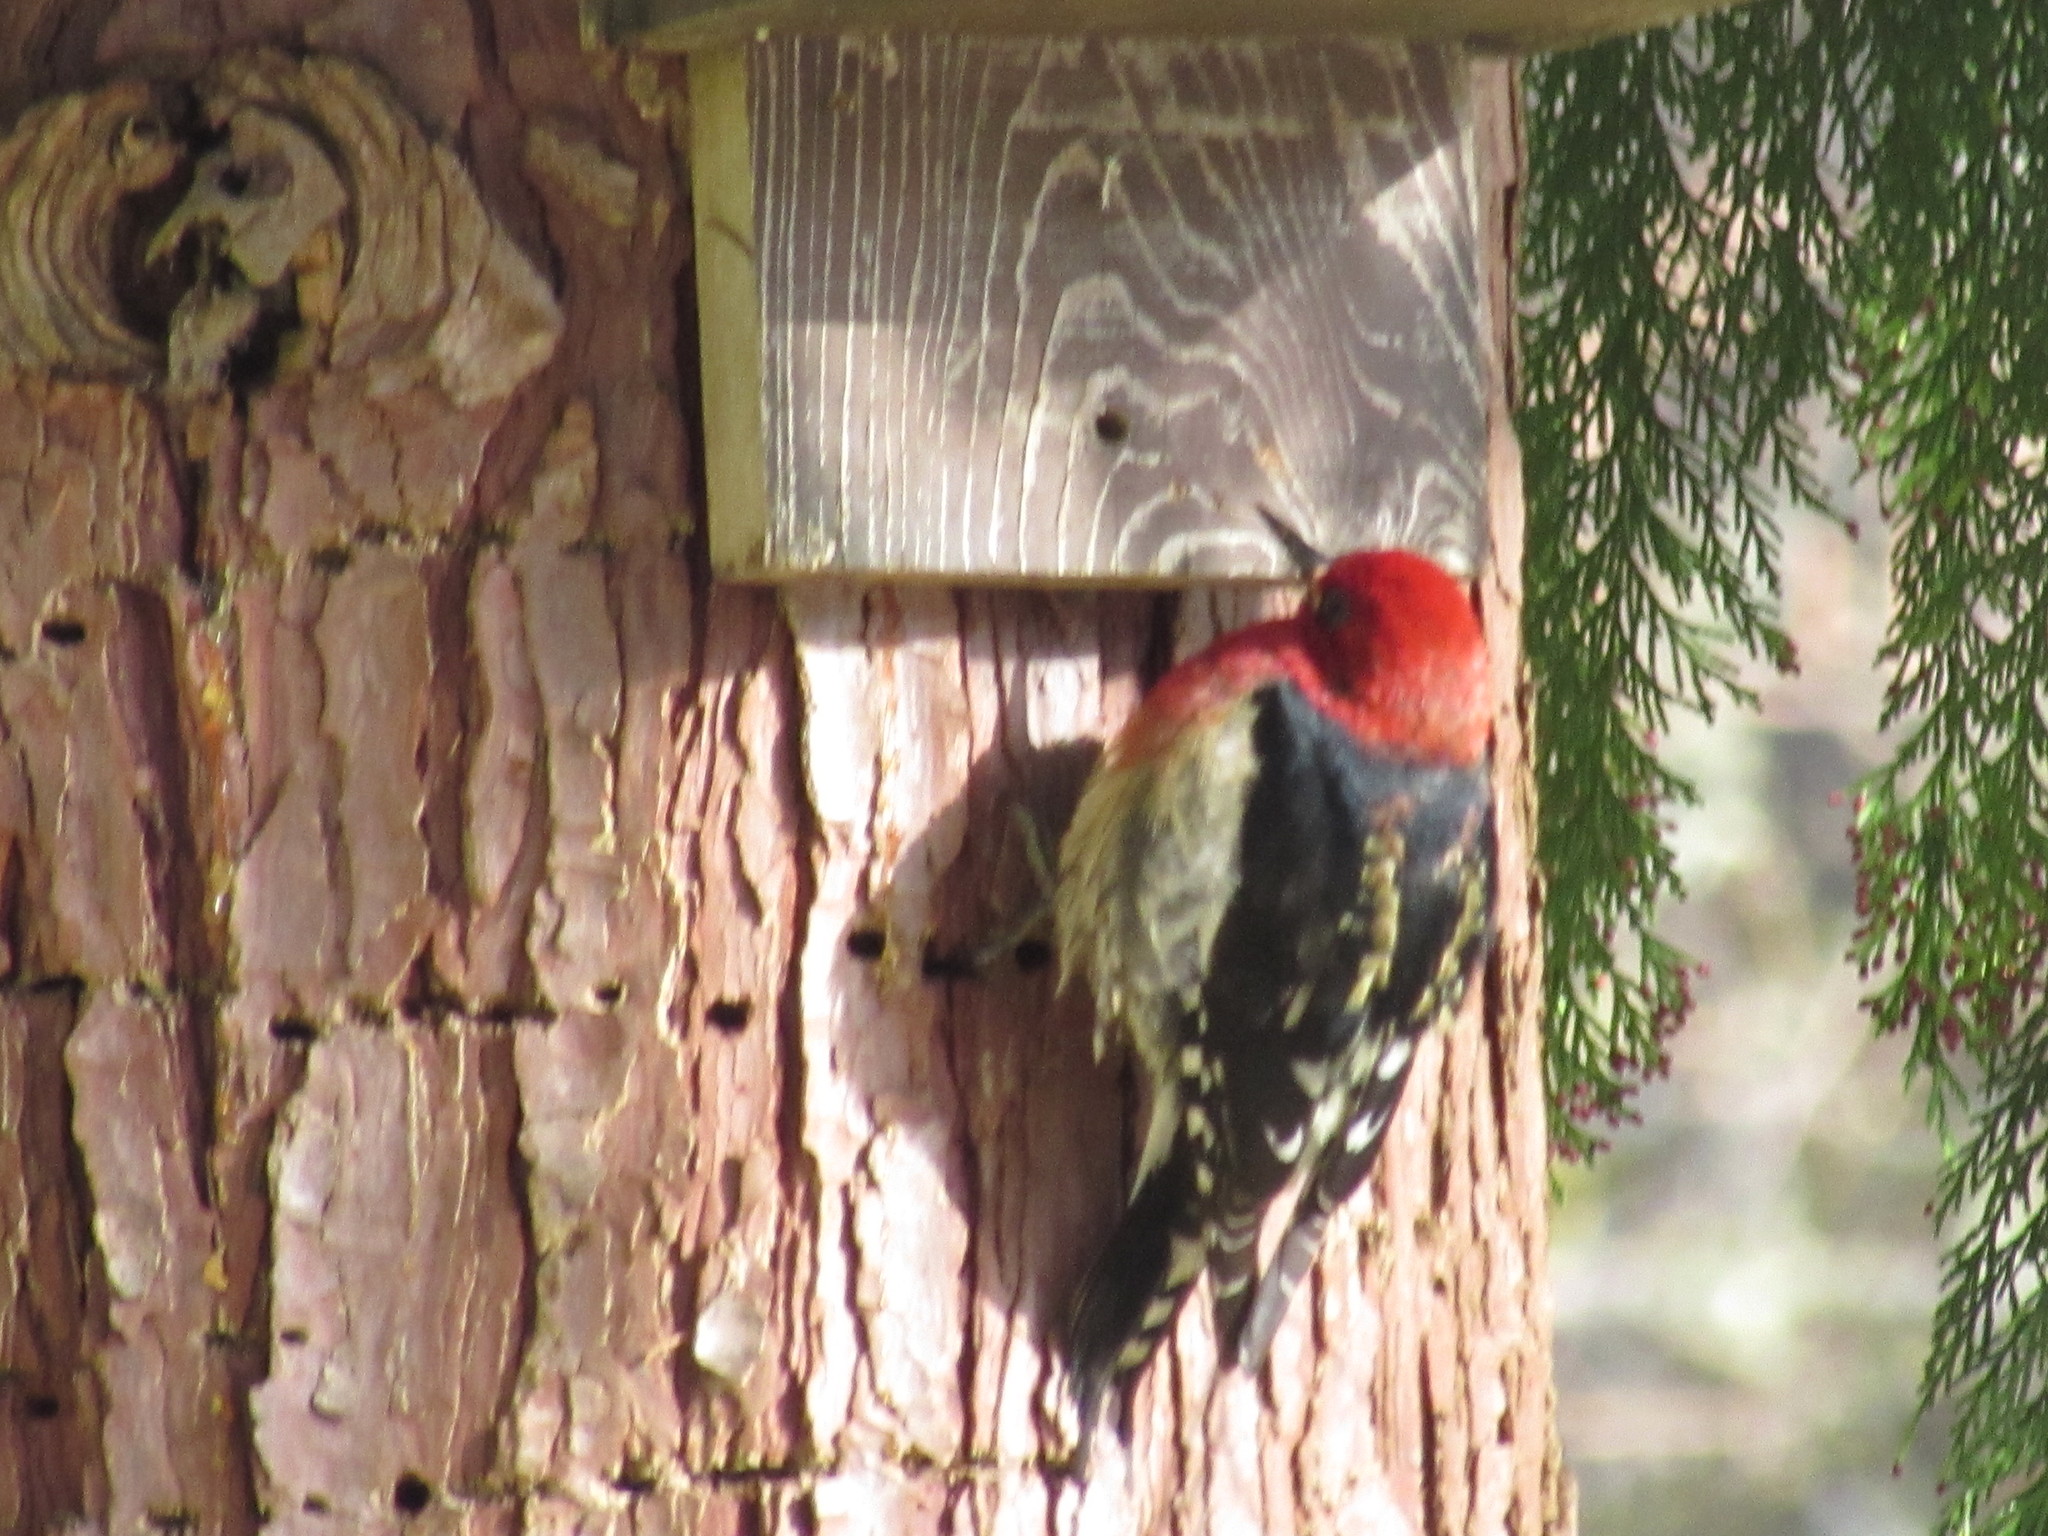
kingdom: Animalia
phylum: Chordata
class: Aves
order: Piciformes
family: Picidae
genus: Sphyrapicus
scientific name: Sphyrapicus ruber
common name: Red-breasted sapsucker
